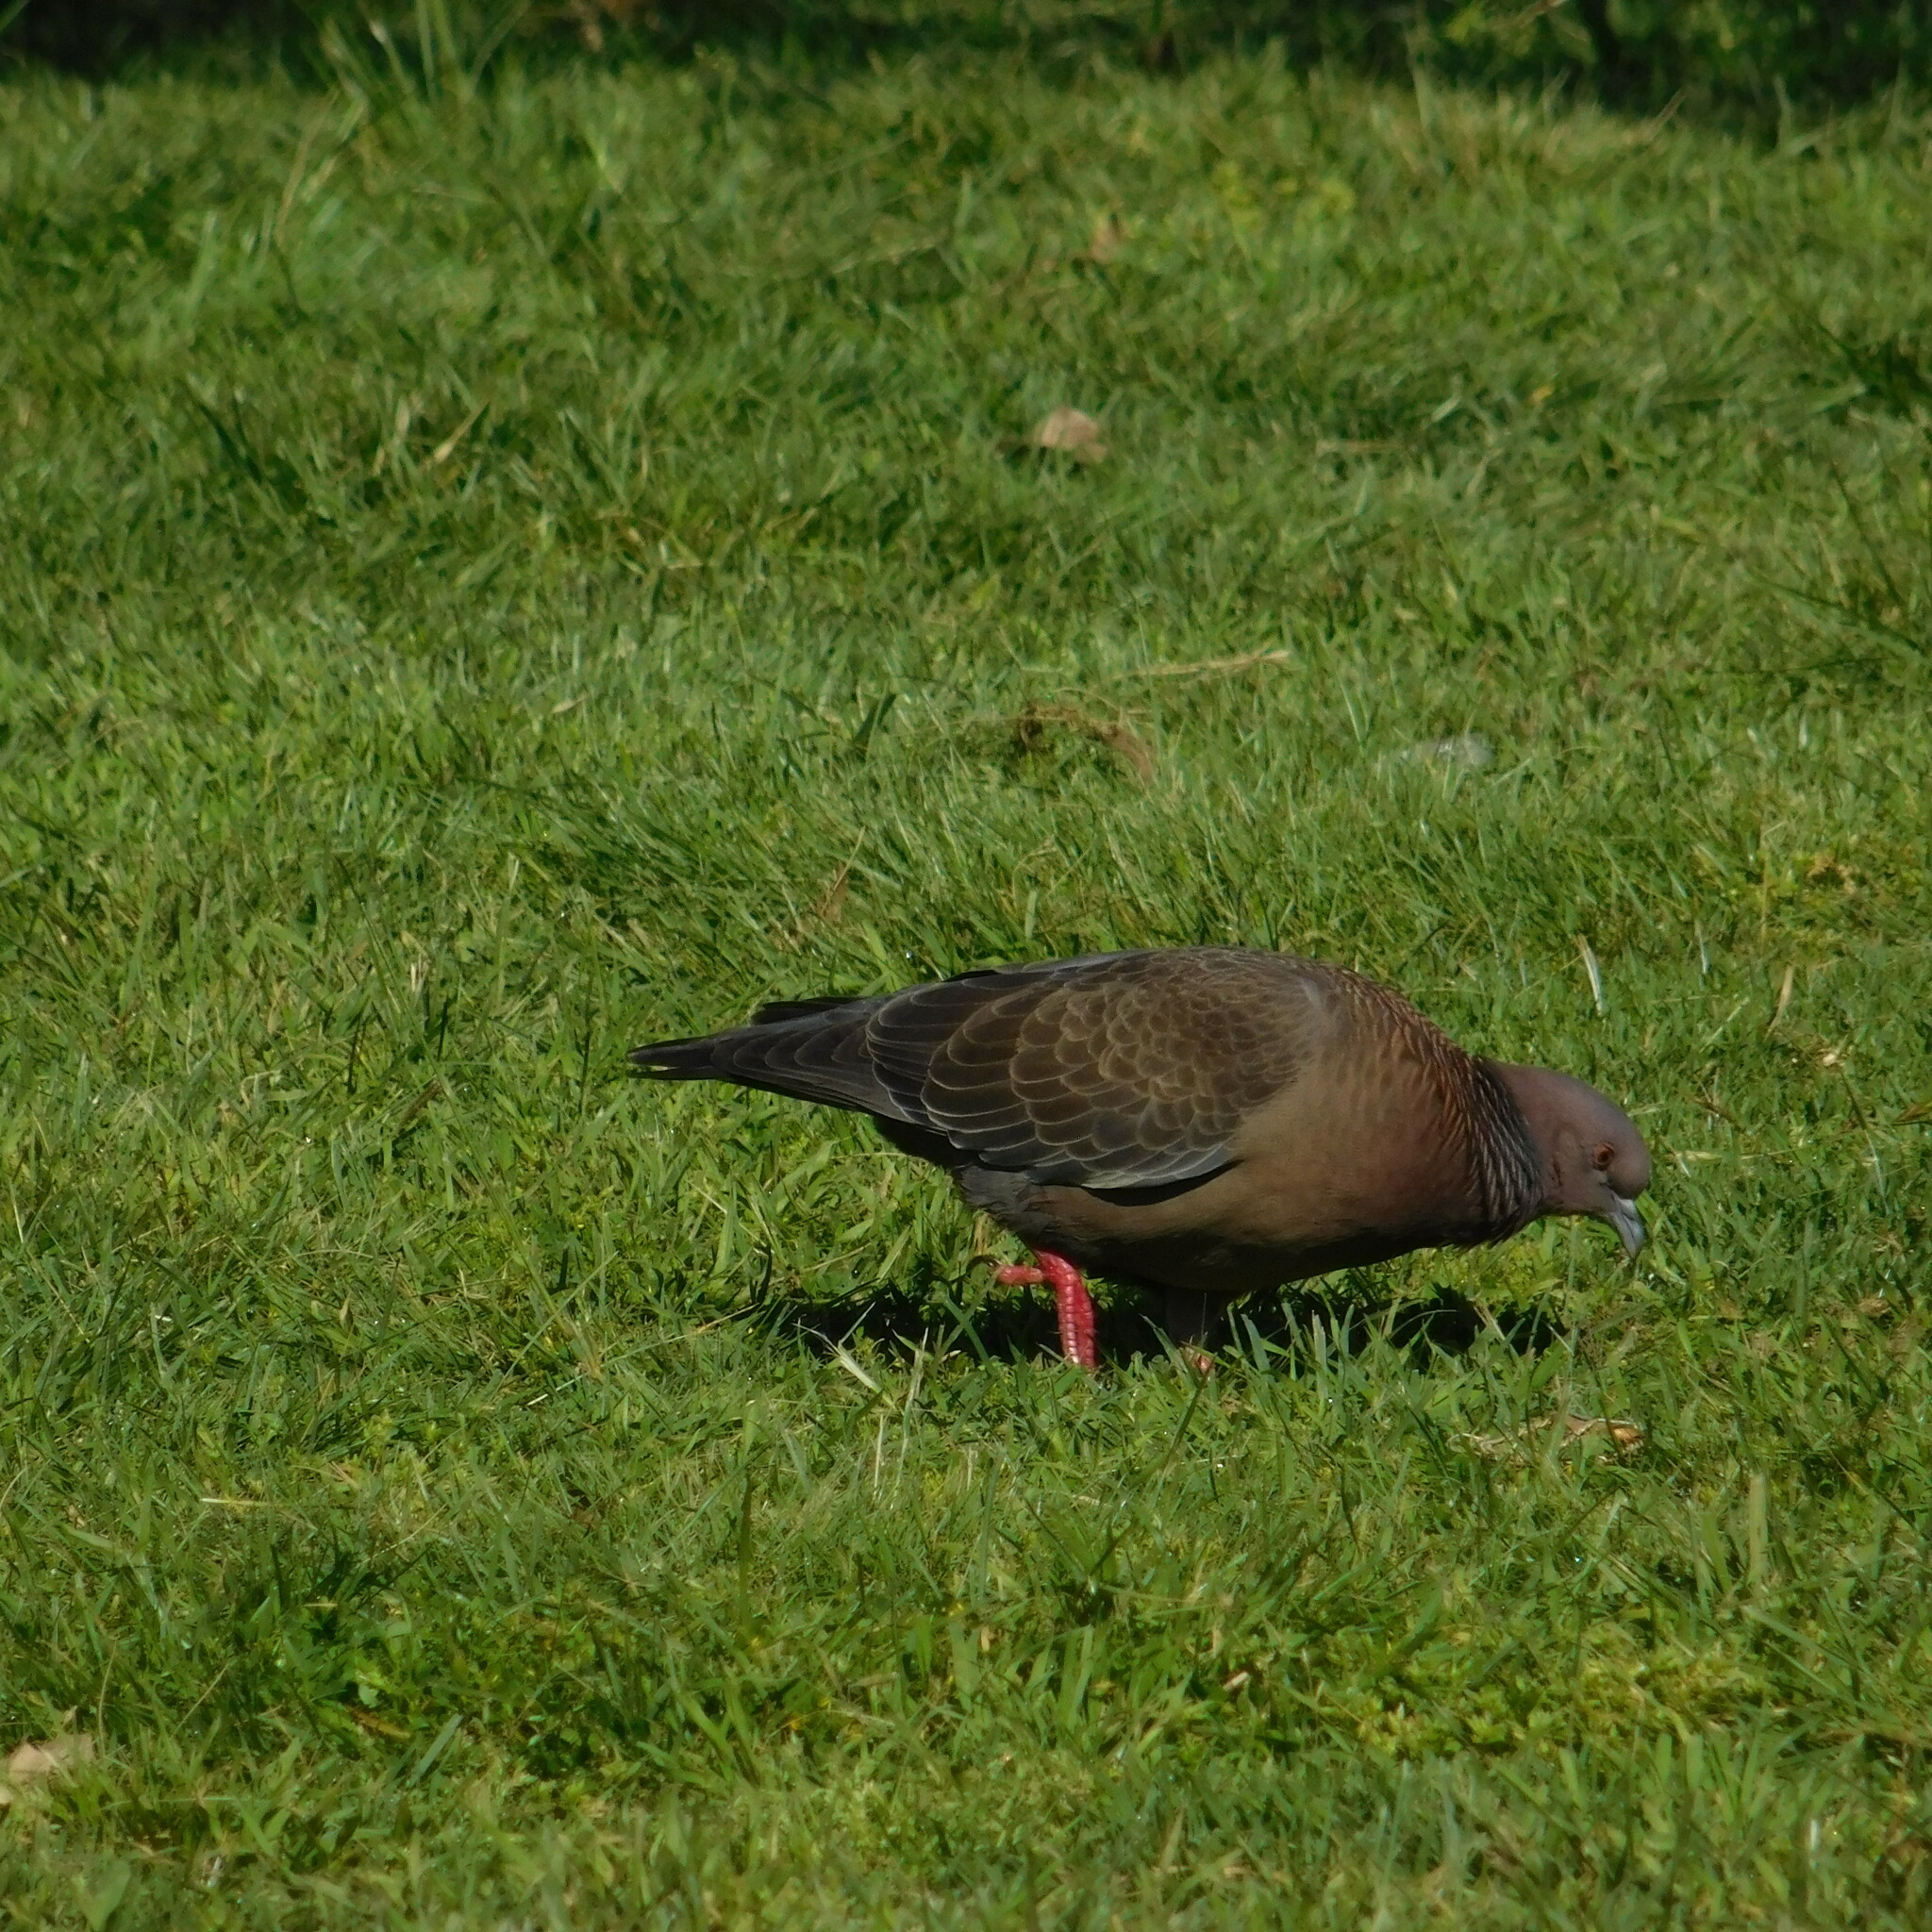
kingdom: Animalia
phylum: Chordata
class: Aves
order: Columbiformes
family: Columbidae
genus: Patagioenas
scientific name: Patagioenas picazuro
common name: Picazuro pigeon
